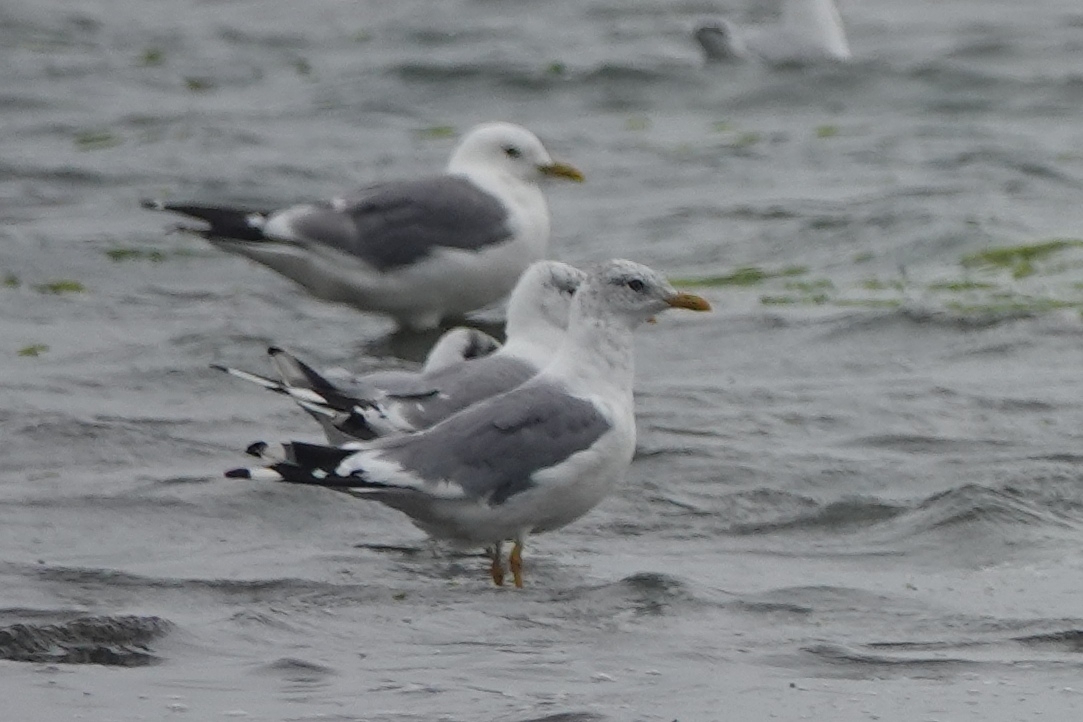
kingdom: Animalia
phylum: Chordata
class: Aves
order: Charadriiformes
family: Laridae
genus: Larus
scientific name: Larus canus
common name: Mew gull
